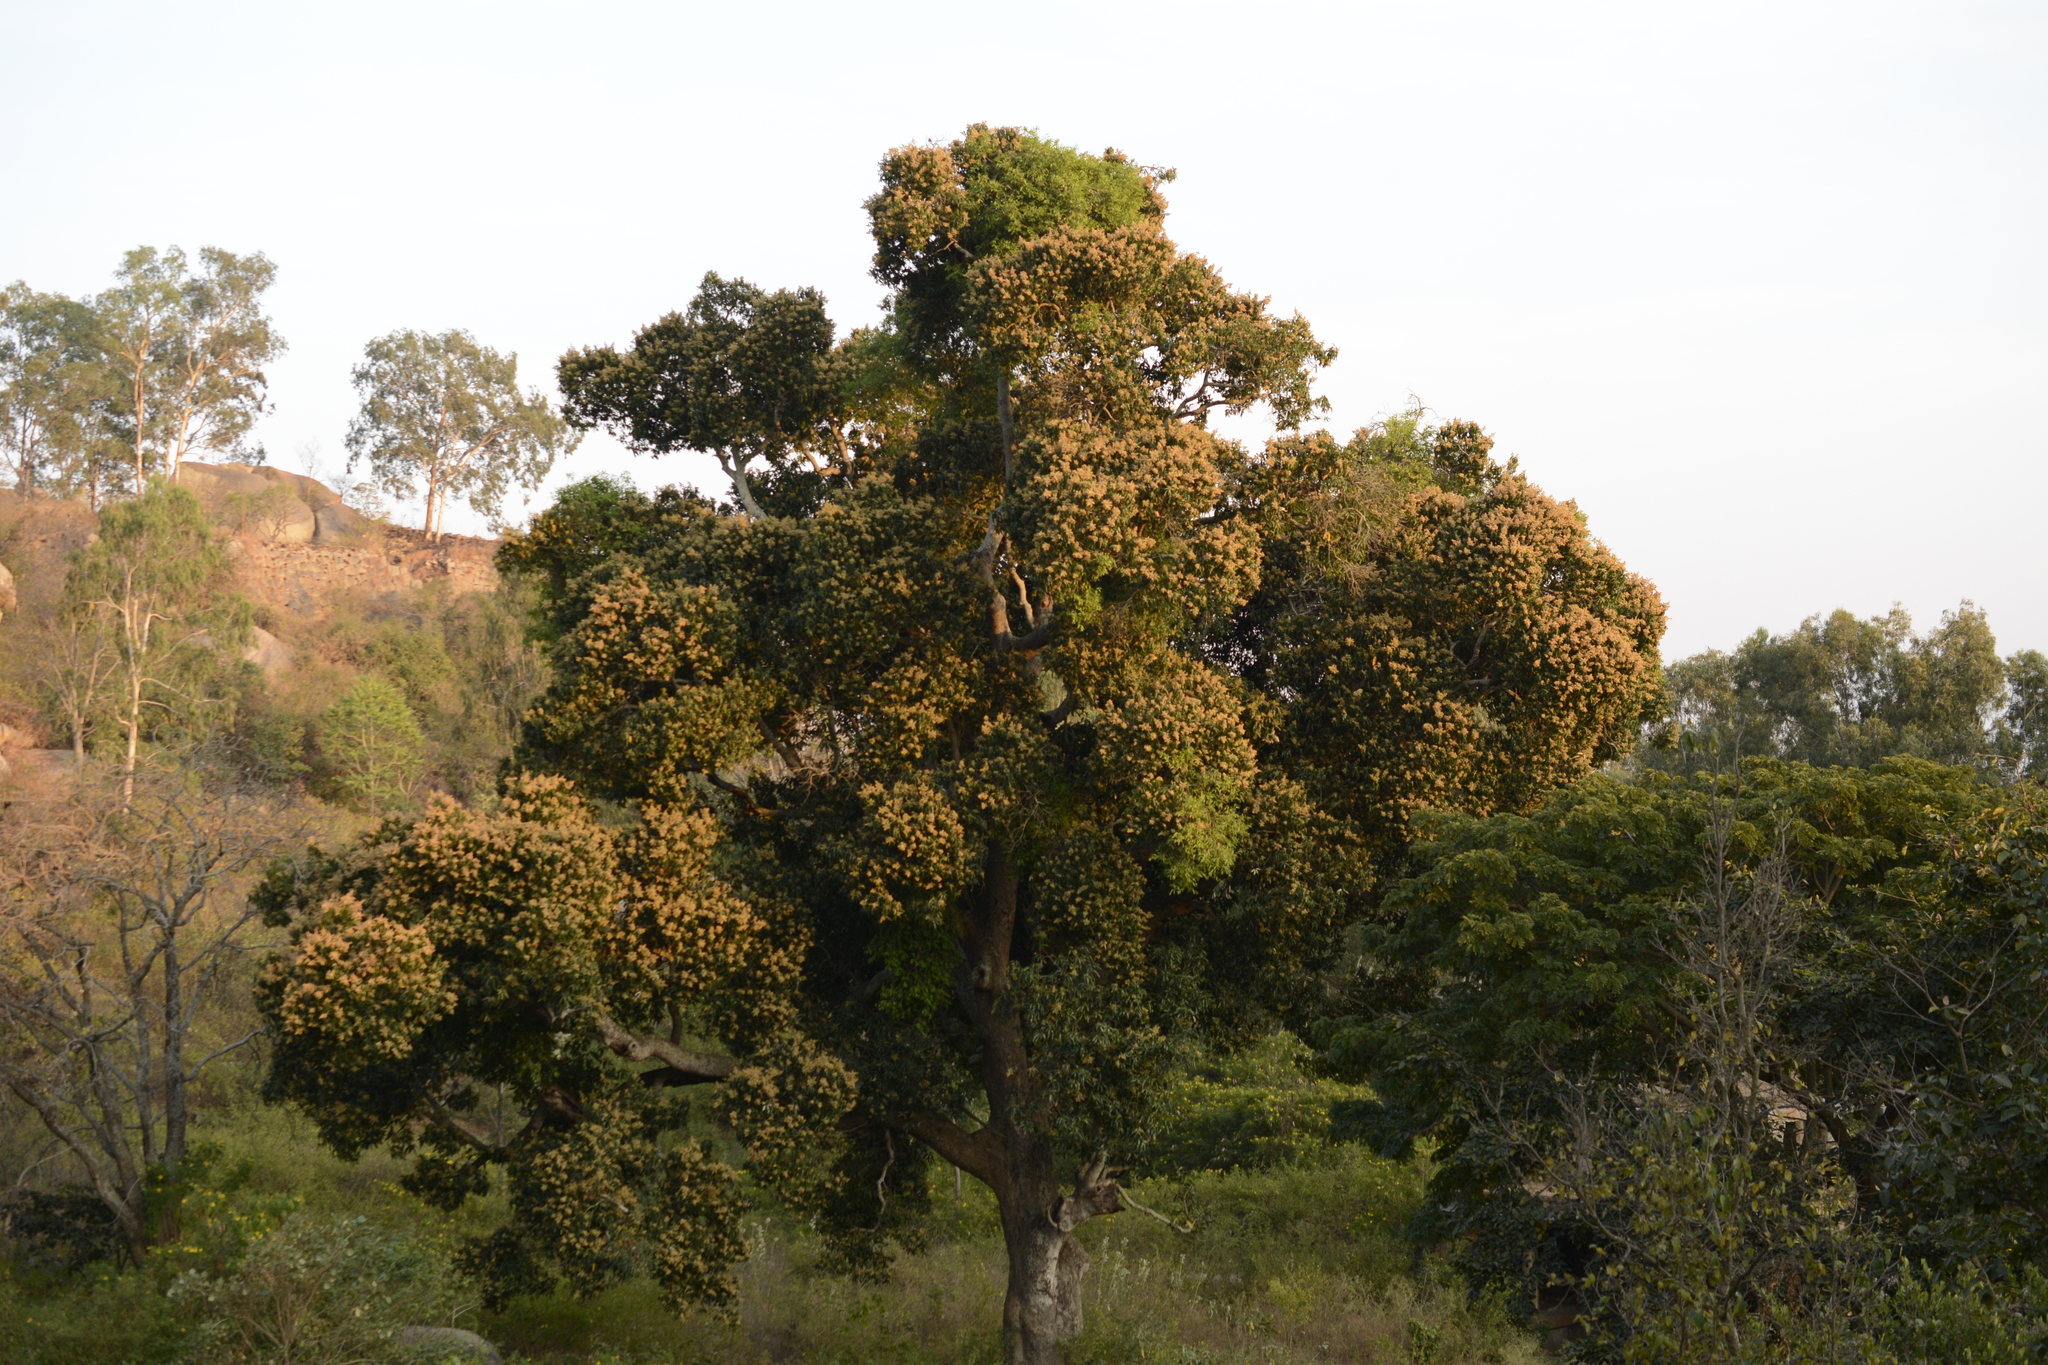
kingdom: Plantae
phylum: Tracheophyta
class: Magnoliopsida
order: Sapindales
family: Anacardiaceae
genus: Mangifera
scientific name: Mangifera indica
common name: Mango
